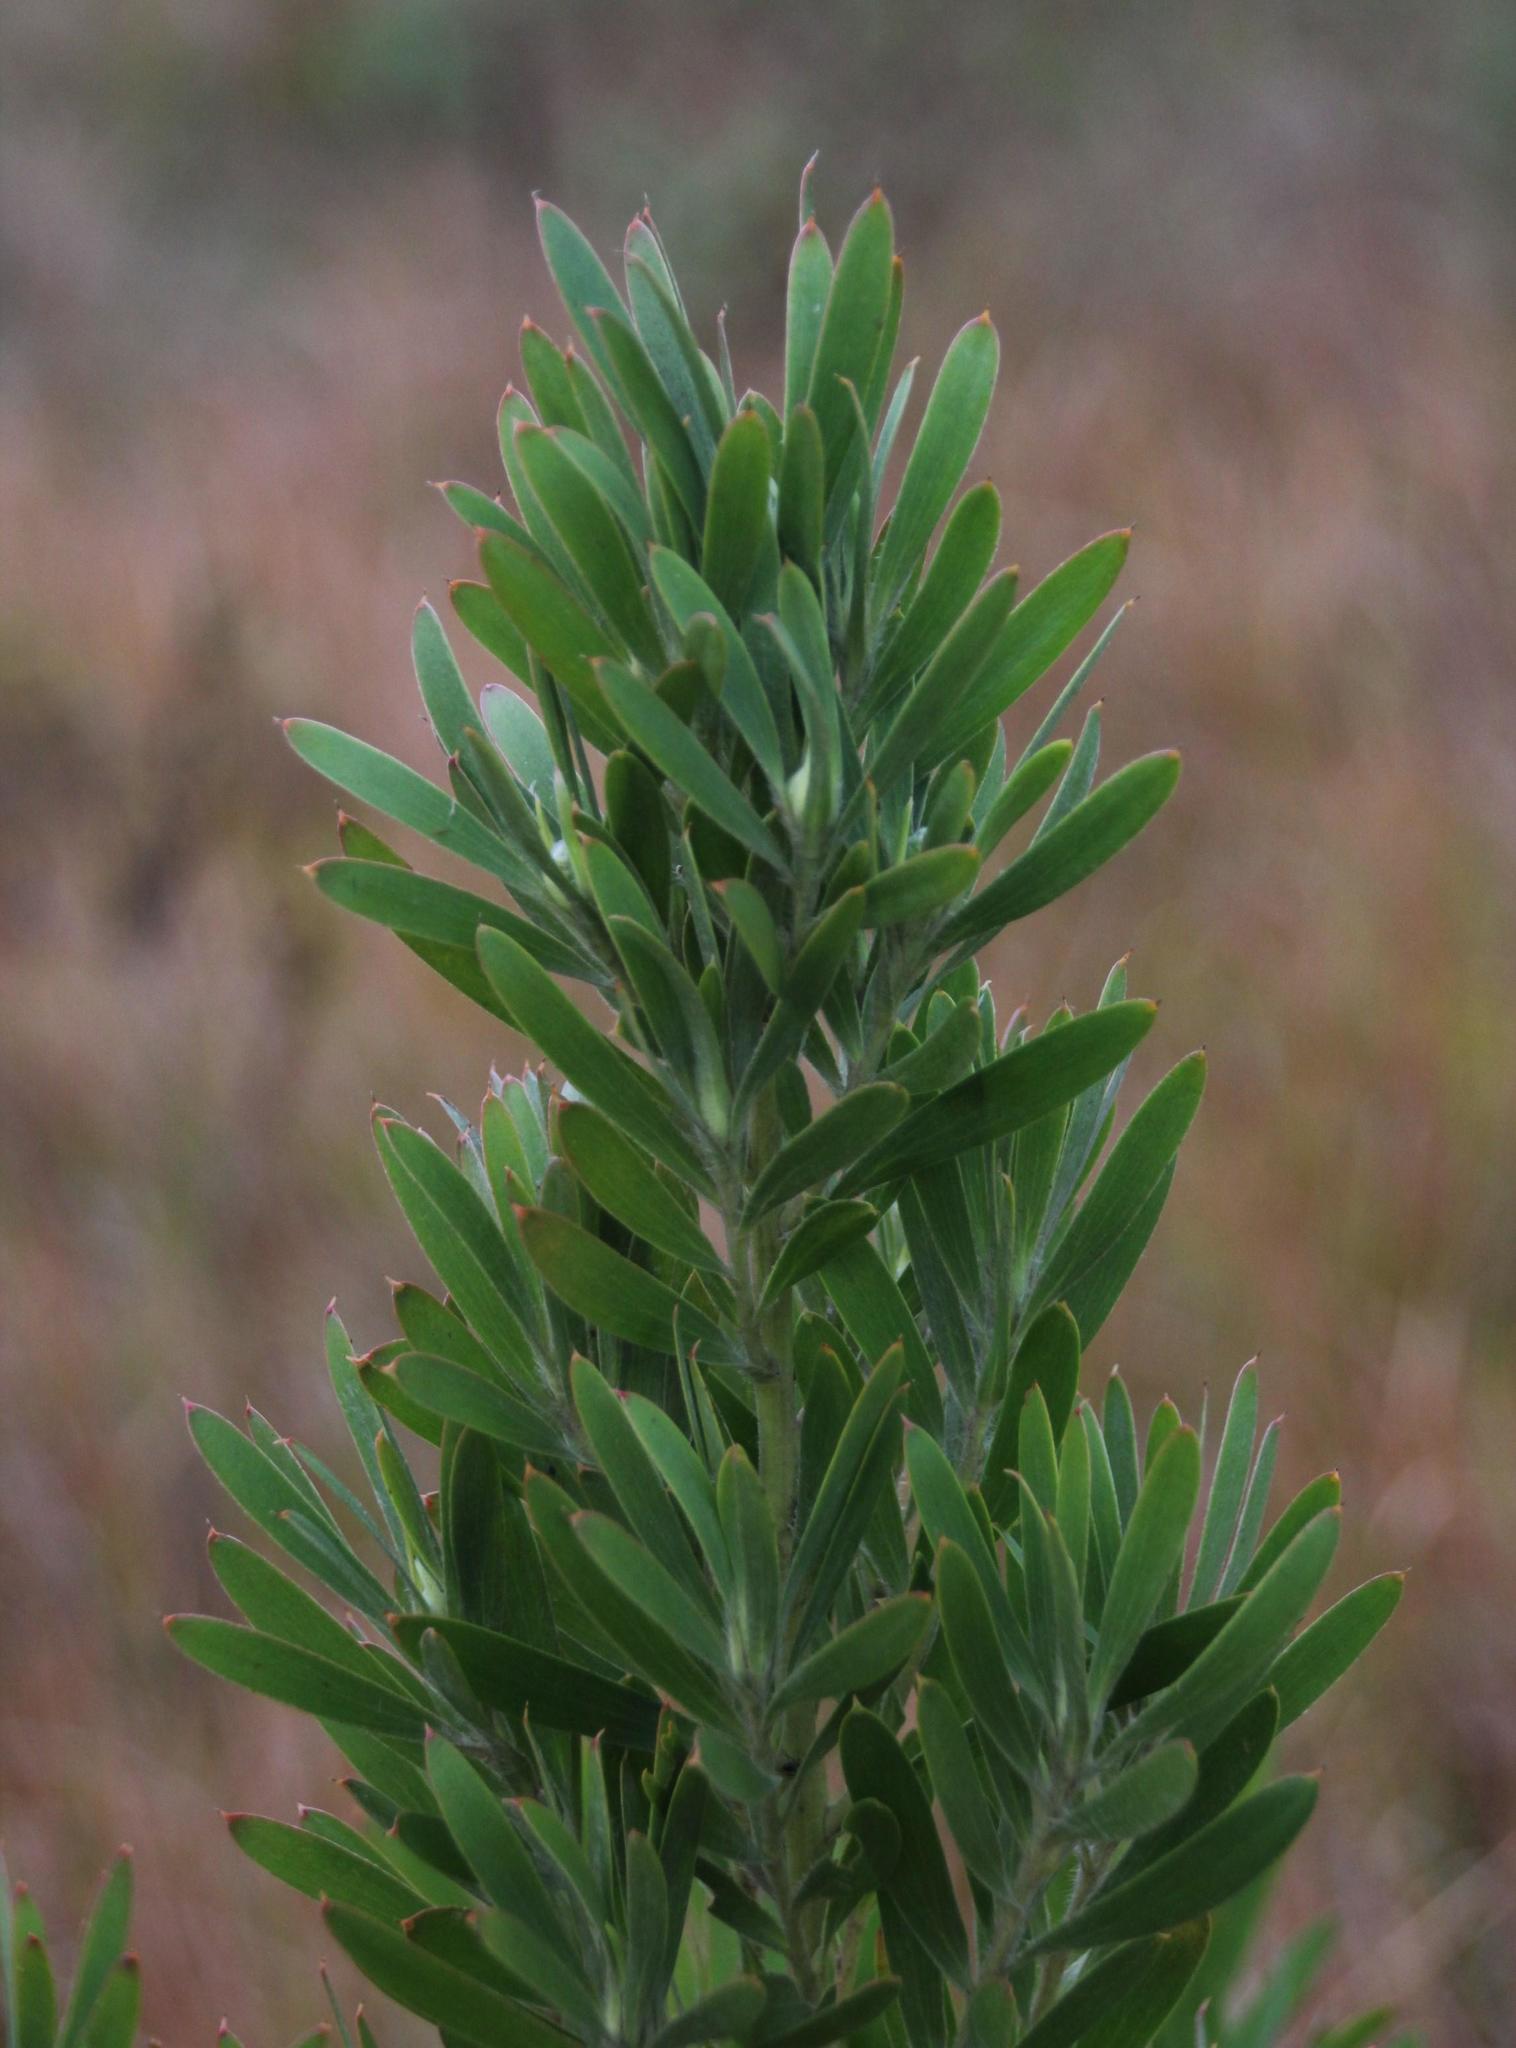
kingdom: Plantae
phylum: Tracheophyta
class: Magnoliopsida
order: Proteales
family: Proteaceae
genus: Leucadendron
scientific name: Leucadendron macowanii
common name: Acacia-leaf conebush
